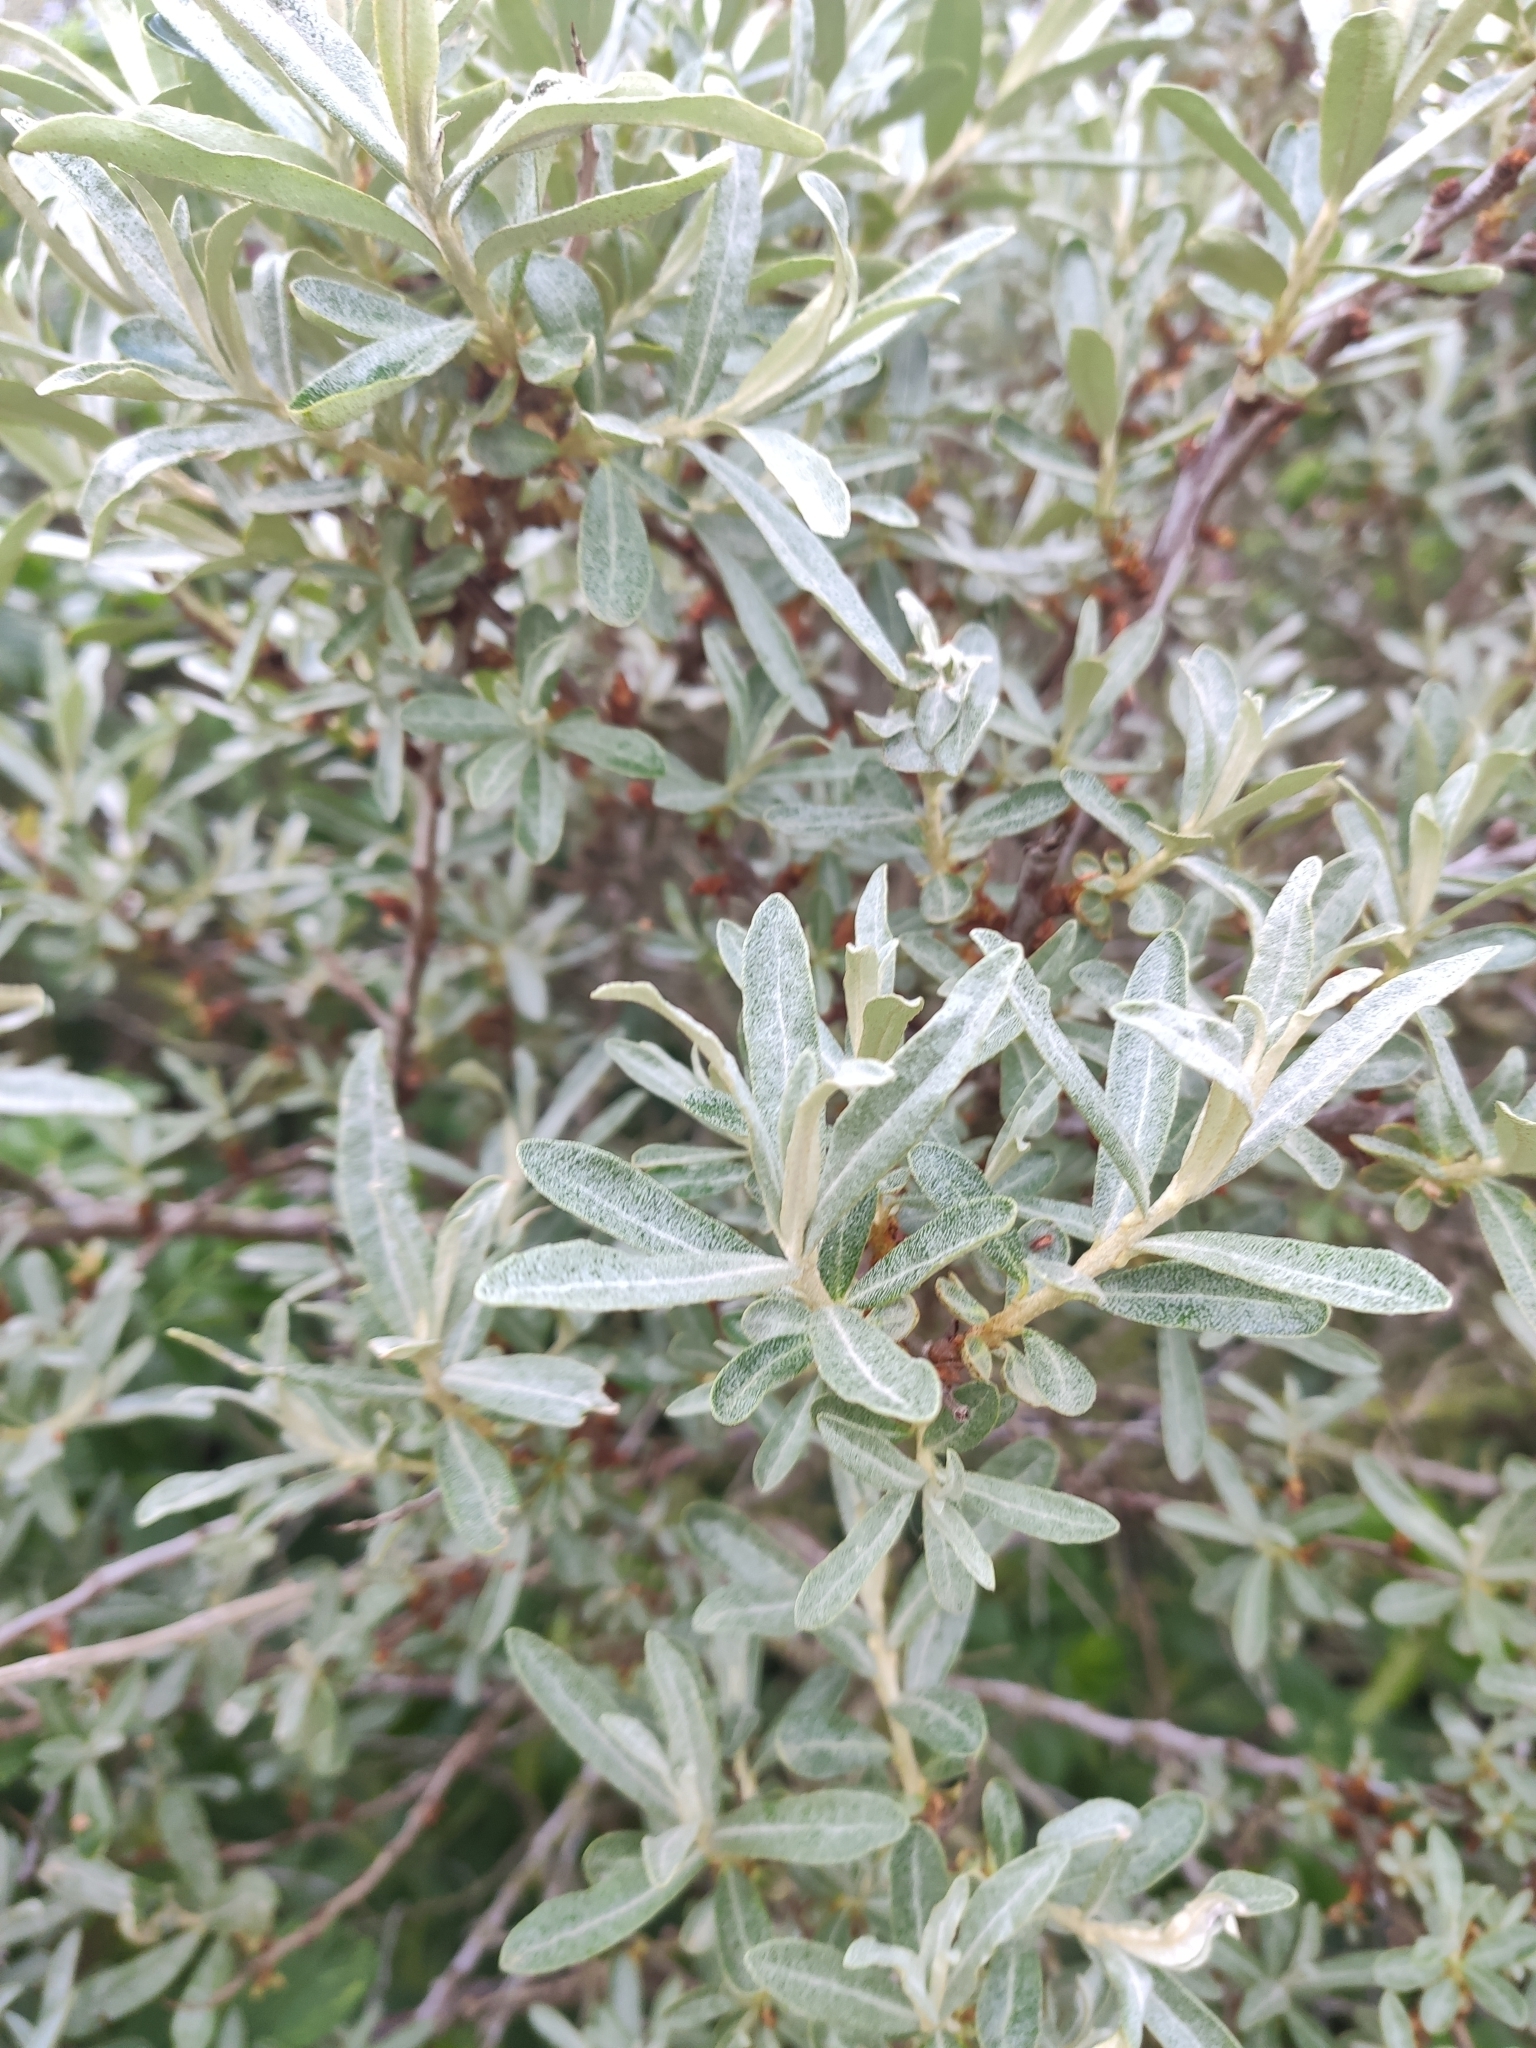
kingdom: Plantae
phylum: Tracheophyta
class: Magnoliopsida
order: Rosales
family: Elaeagnaceae
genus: Hippophae
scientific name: Hippophae rhamnoides
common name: Sea-buckthorn
